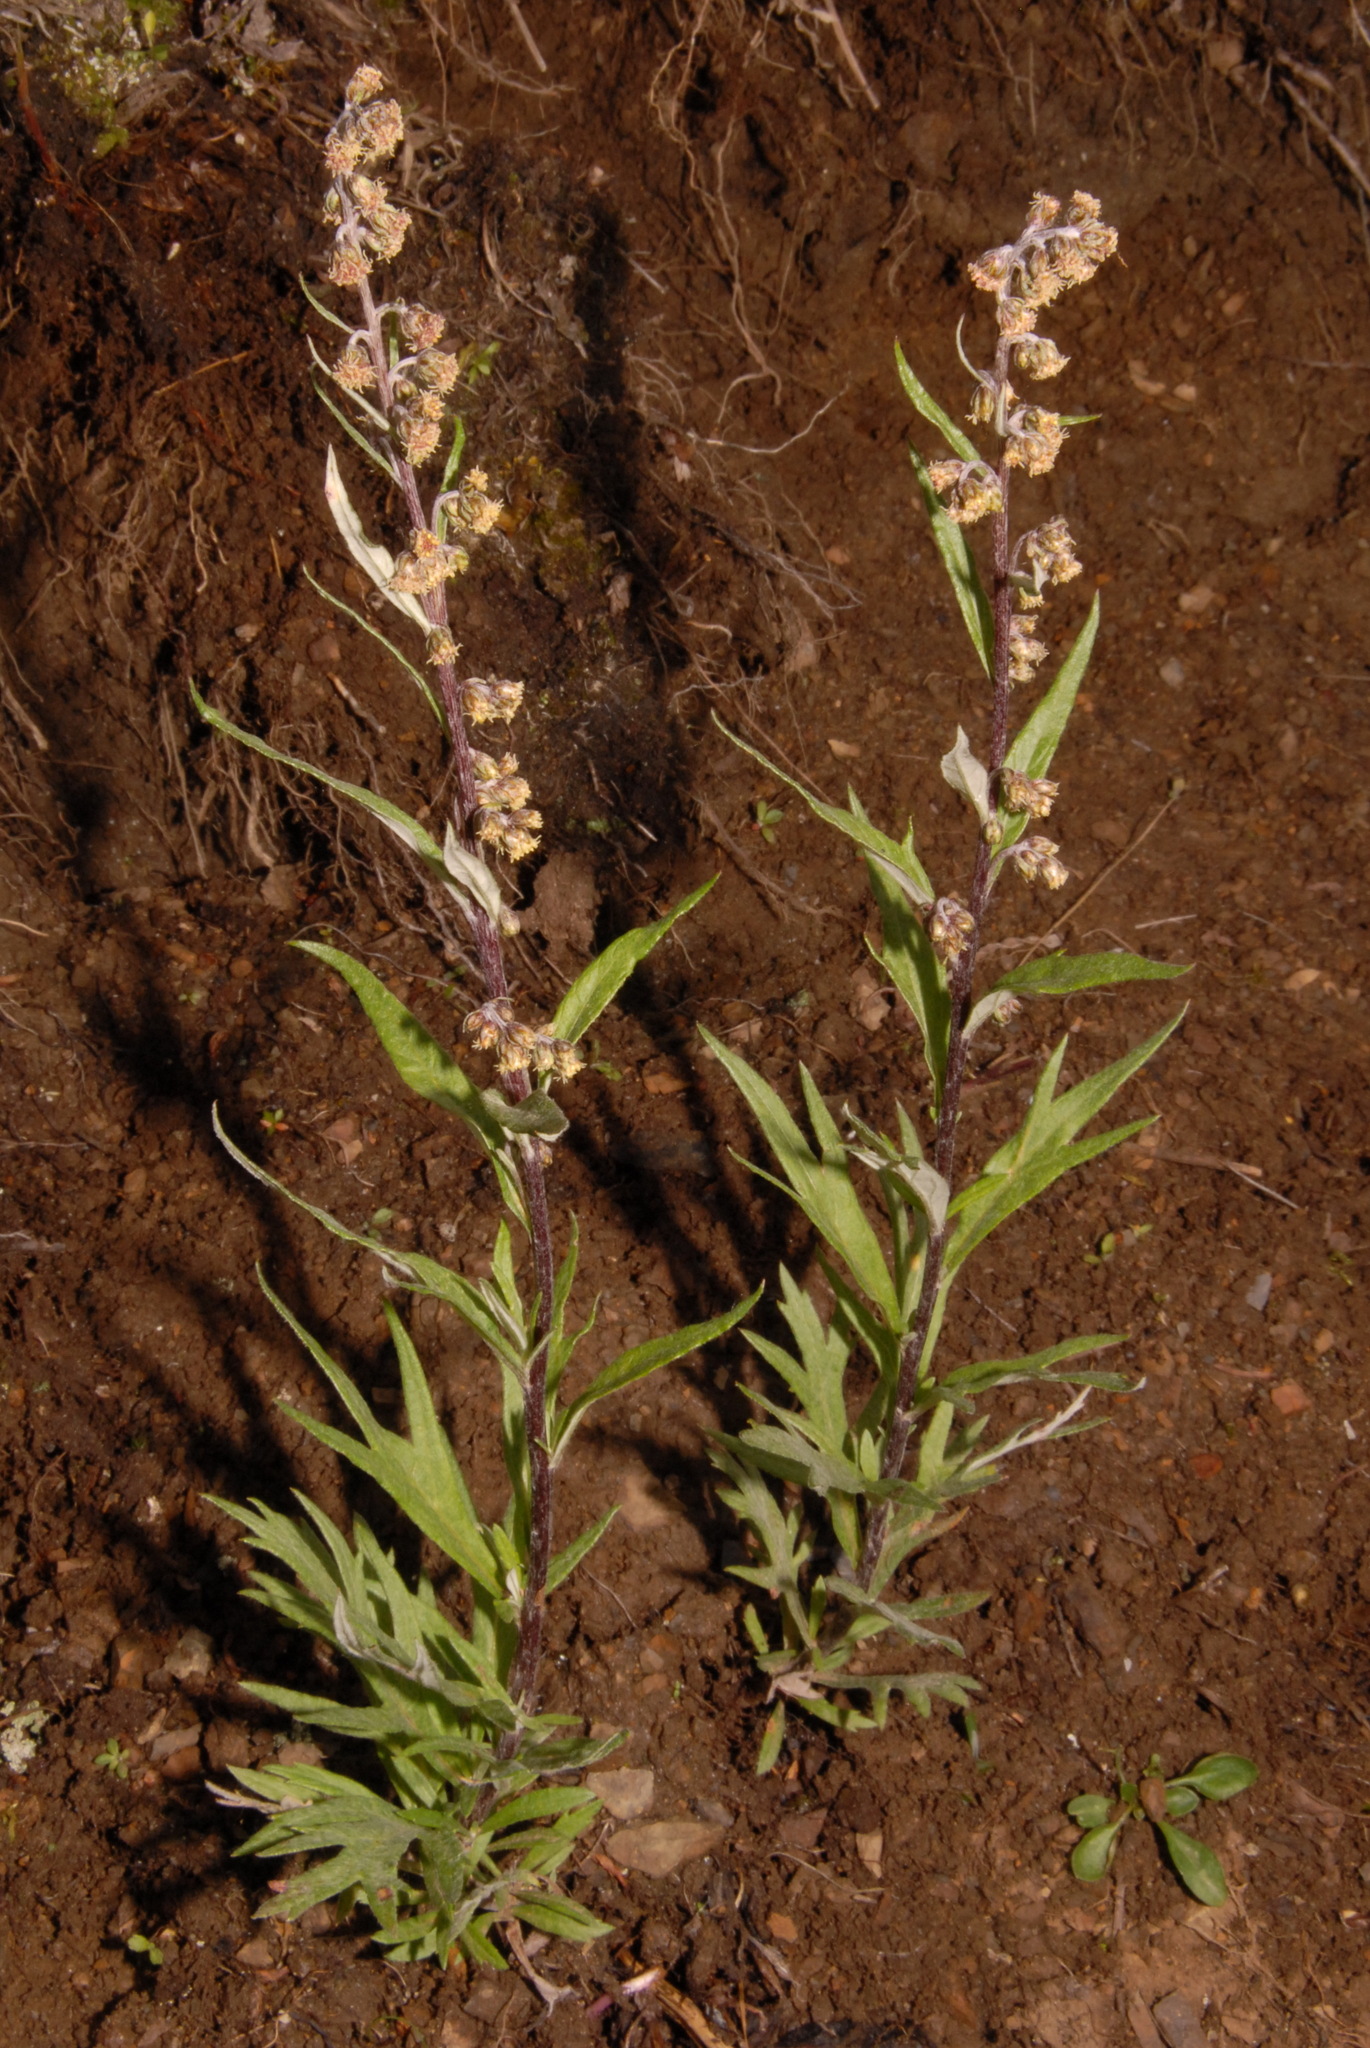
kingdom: Plantae
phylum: Tracheophyta
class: Magnoliopsida
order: Asterales
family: Asteraceae
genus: Artemisia
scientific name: Artemisia tilesii
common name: Aleutian mugwort
